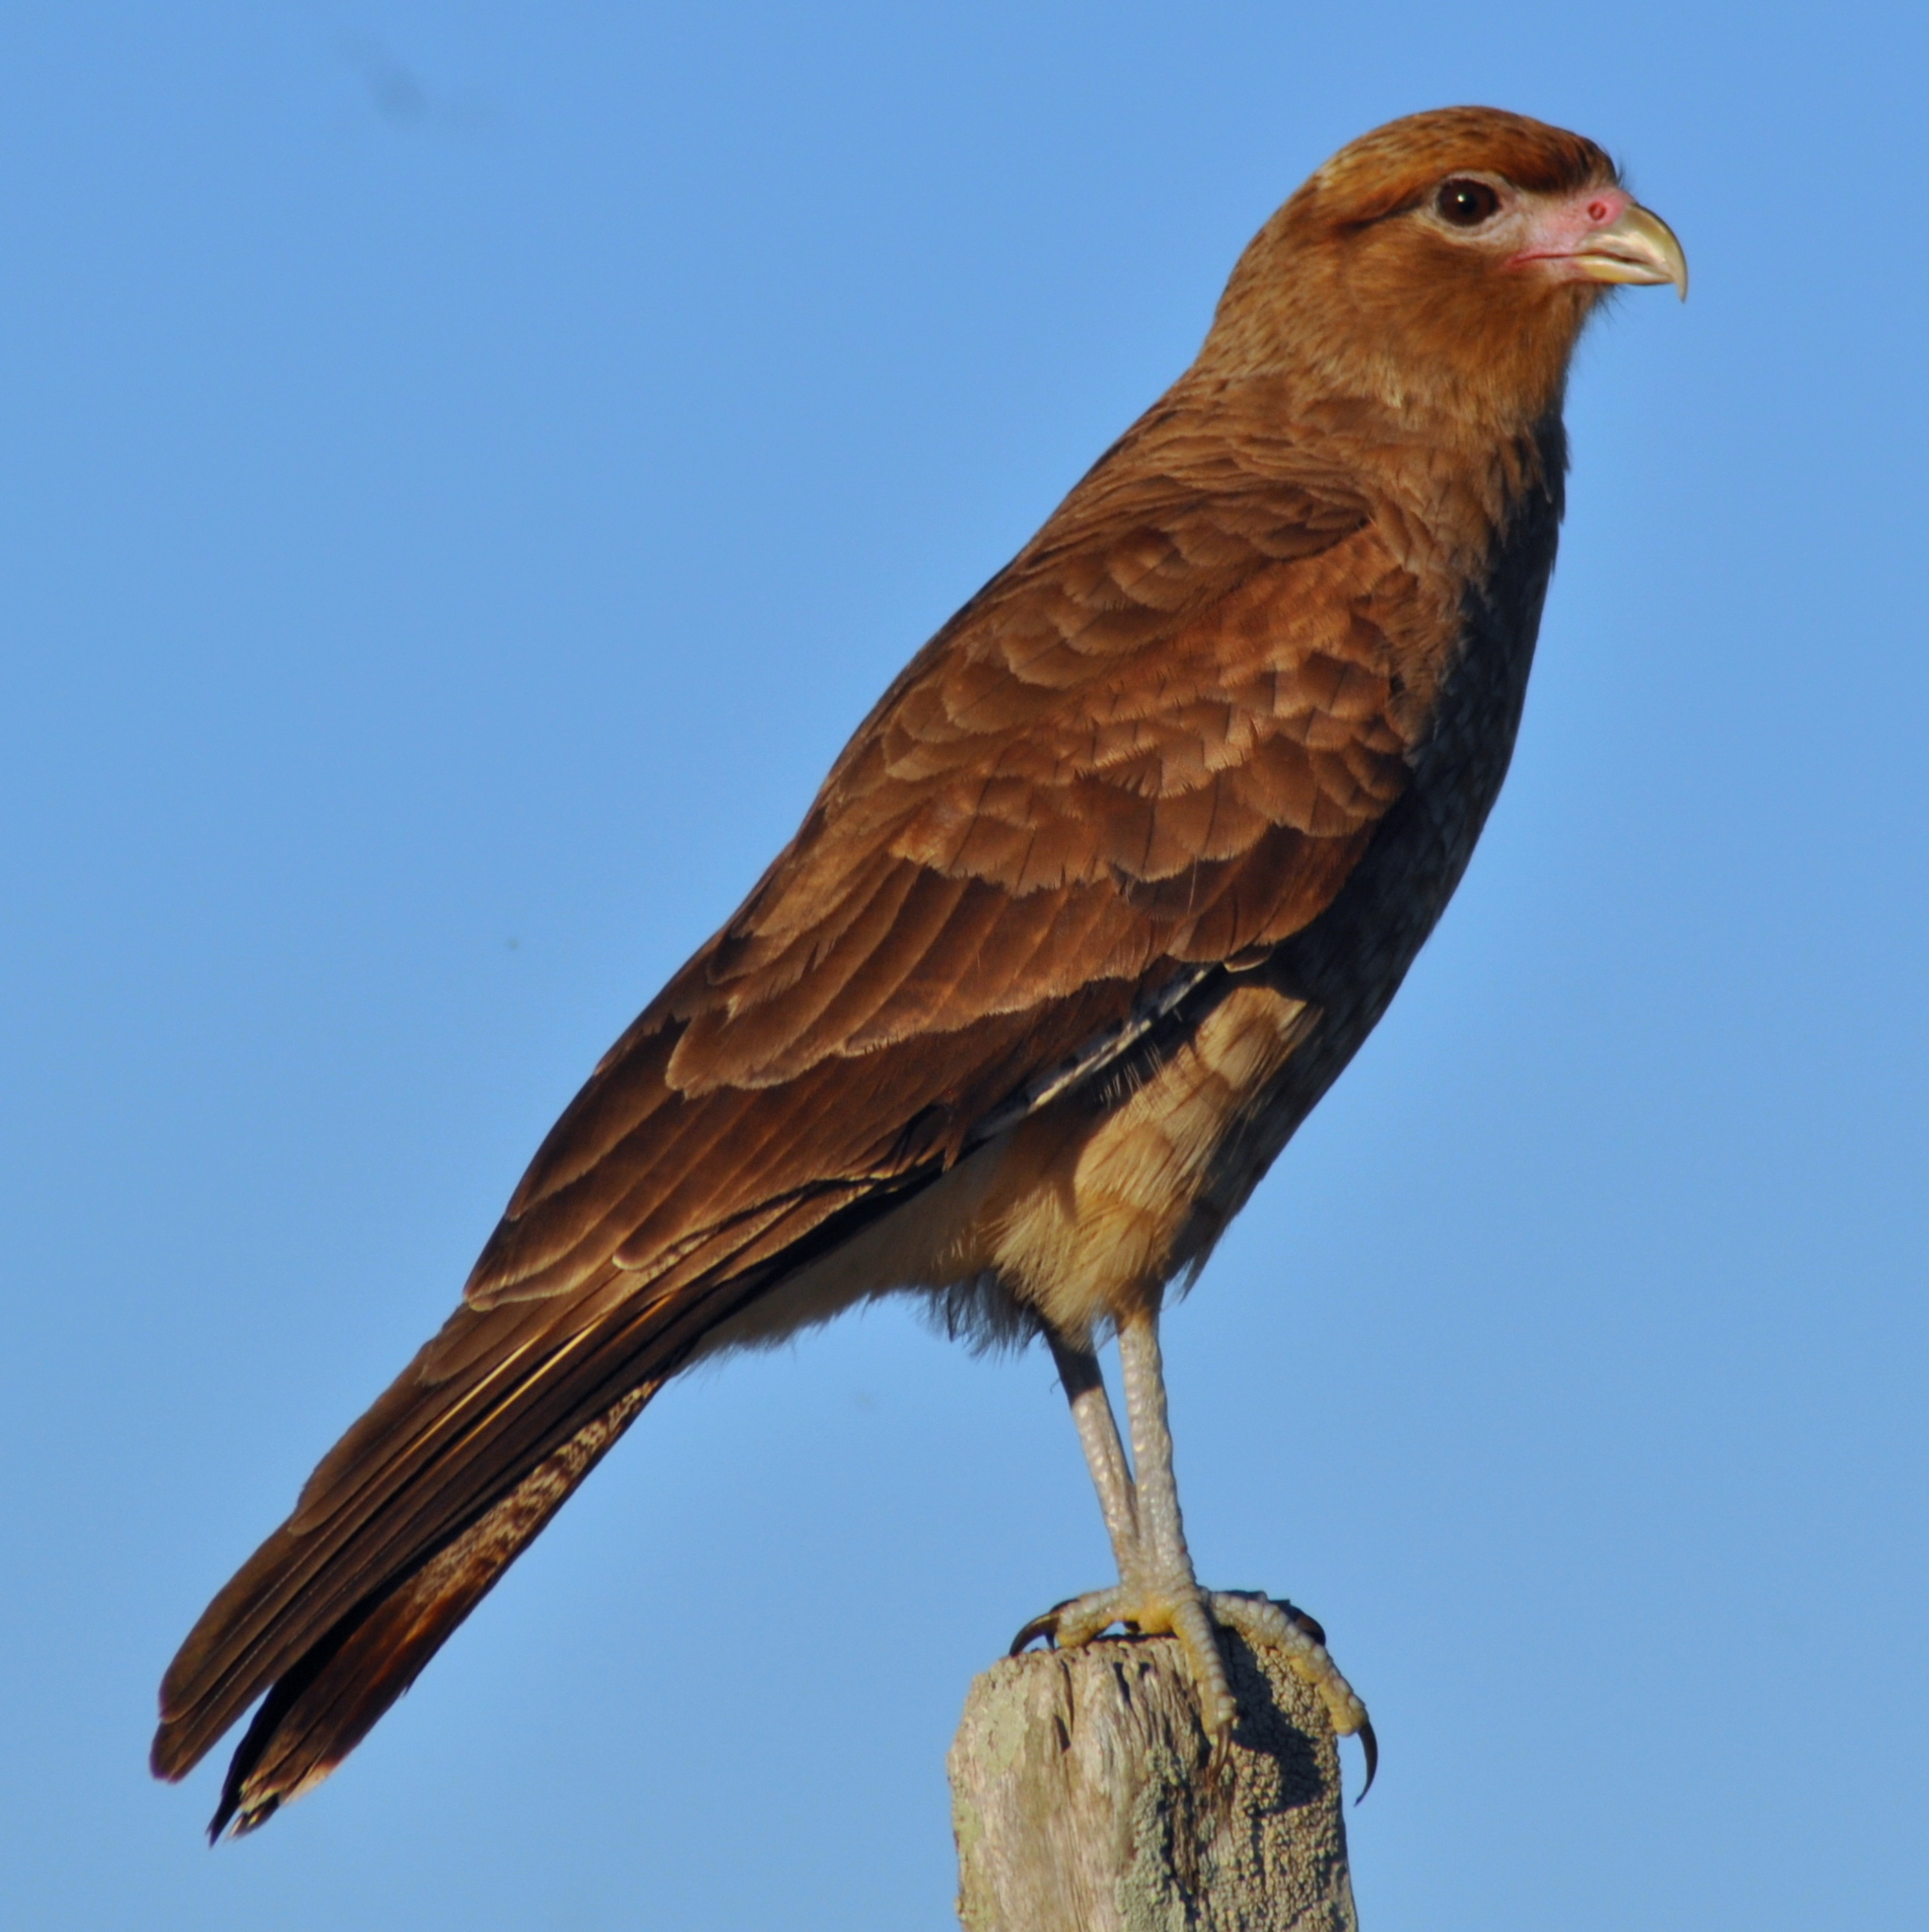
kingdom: Animalia
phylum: Chordata
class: Aves
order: Falconiformes
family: Falconidae
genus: Daptrius
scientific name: Daptrius
